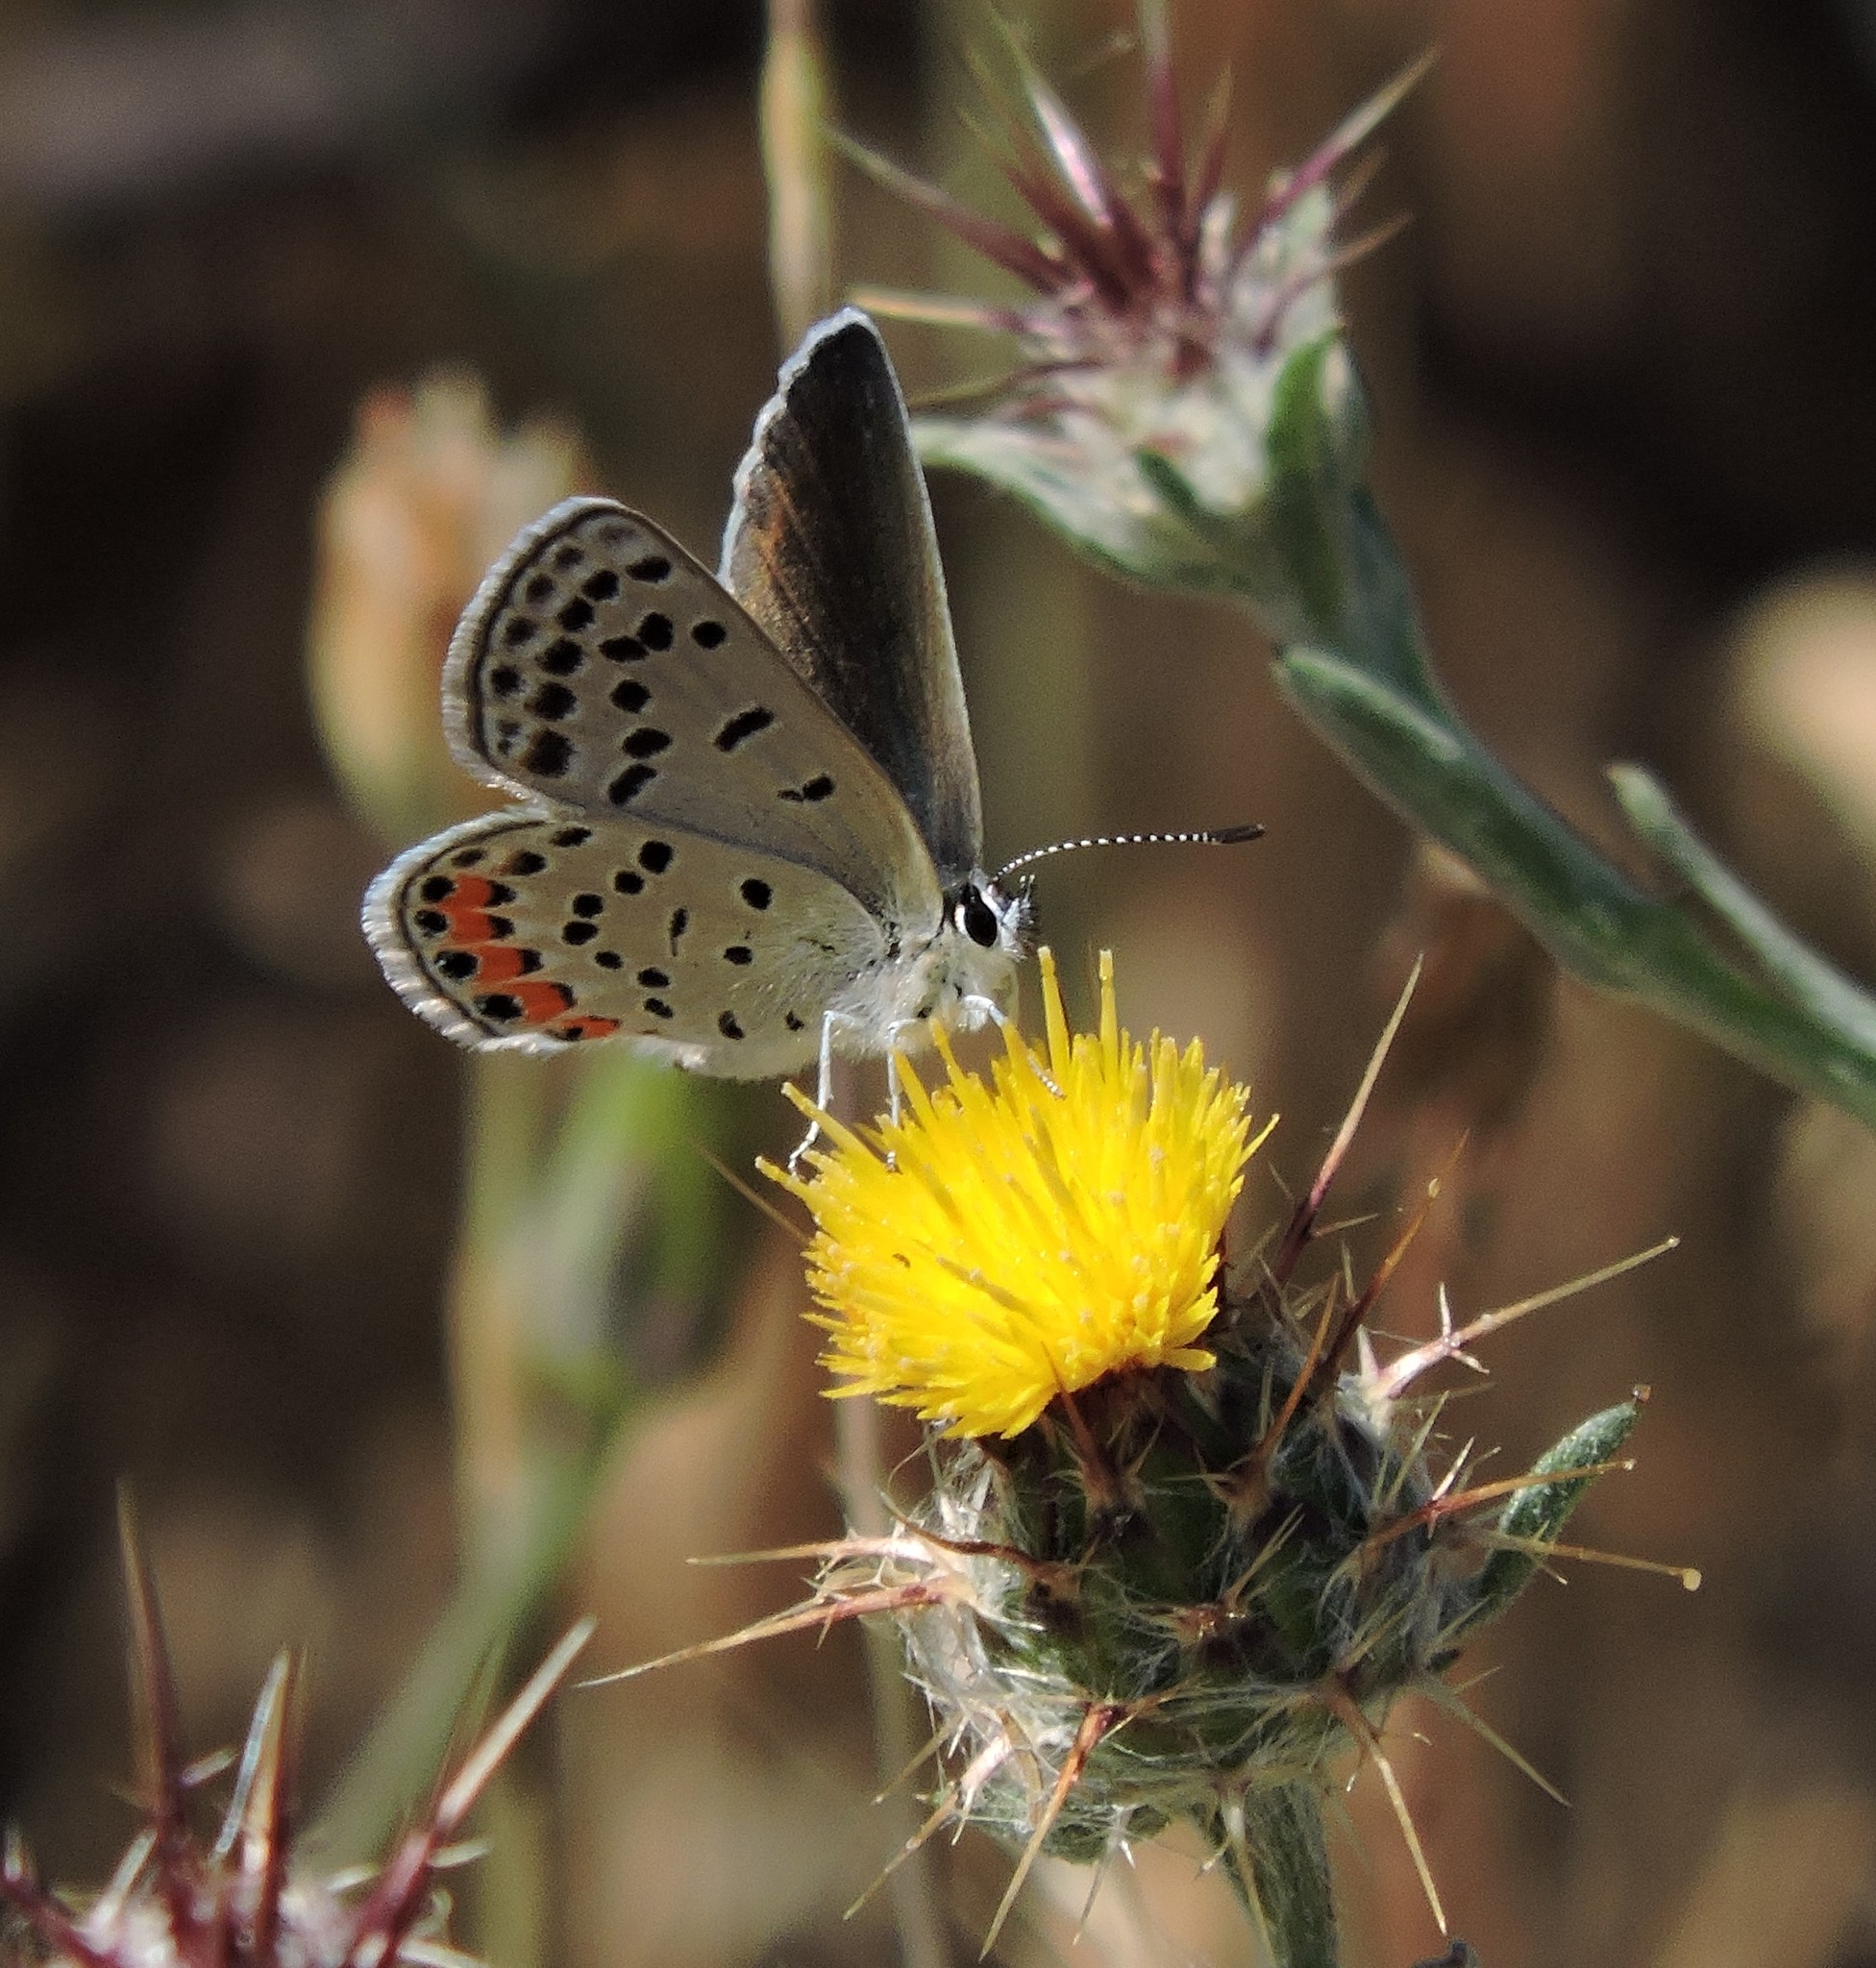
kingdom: Animalia
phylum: Arthropoda
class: Insecta
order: Lepidoptera
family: Lycaenidae
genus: Icaricia
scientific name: Icaricia acmon
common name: Acmon blue
